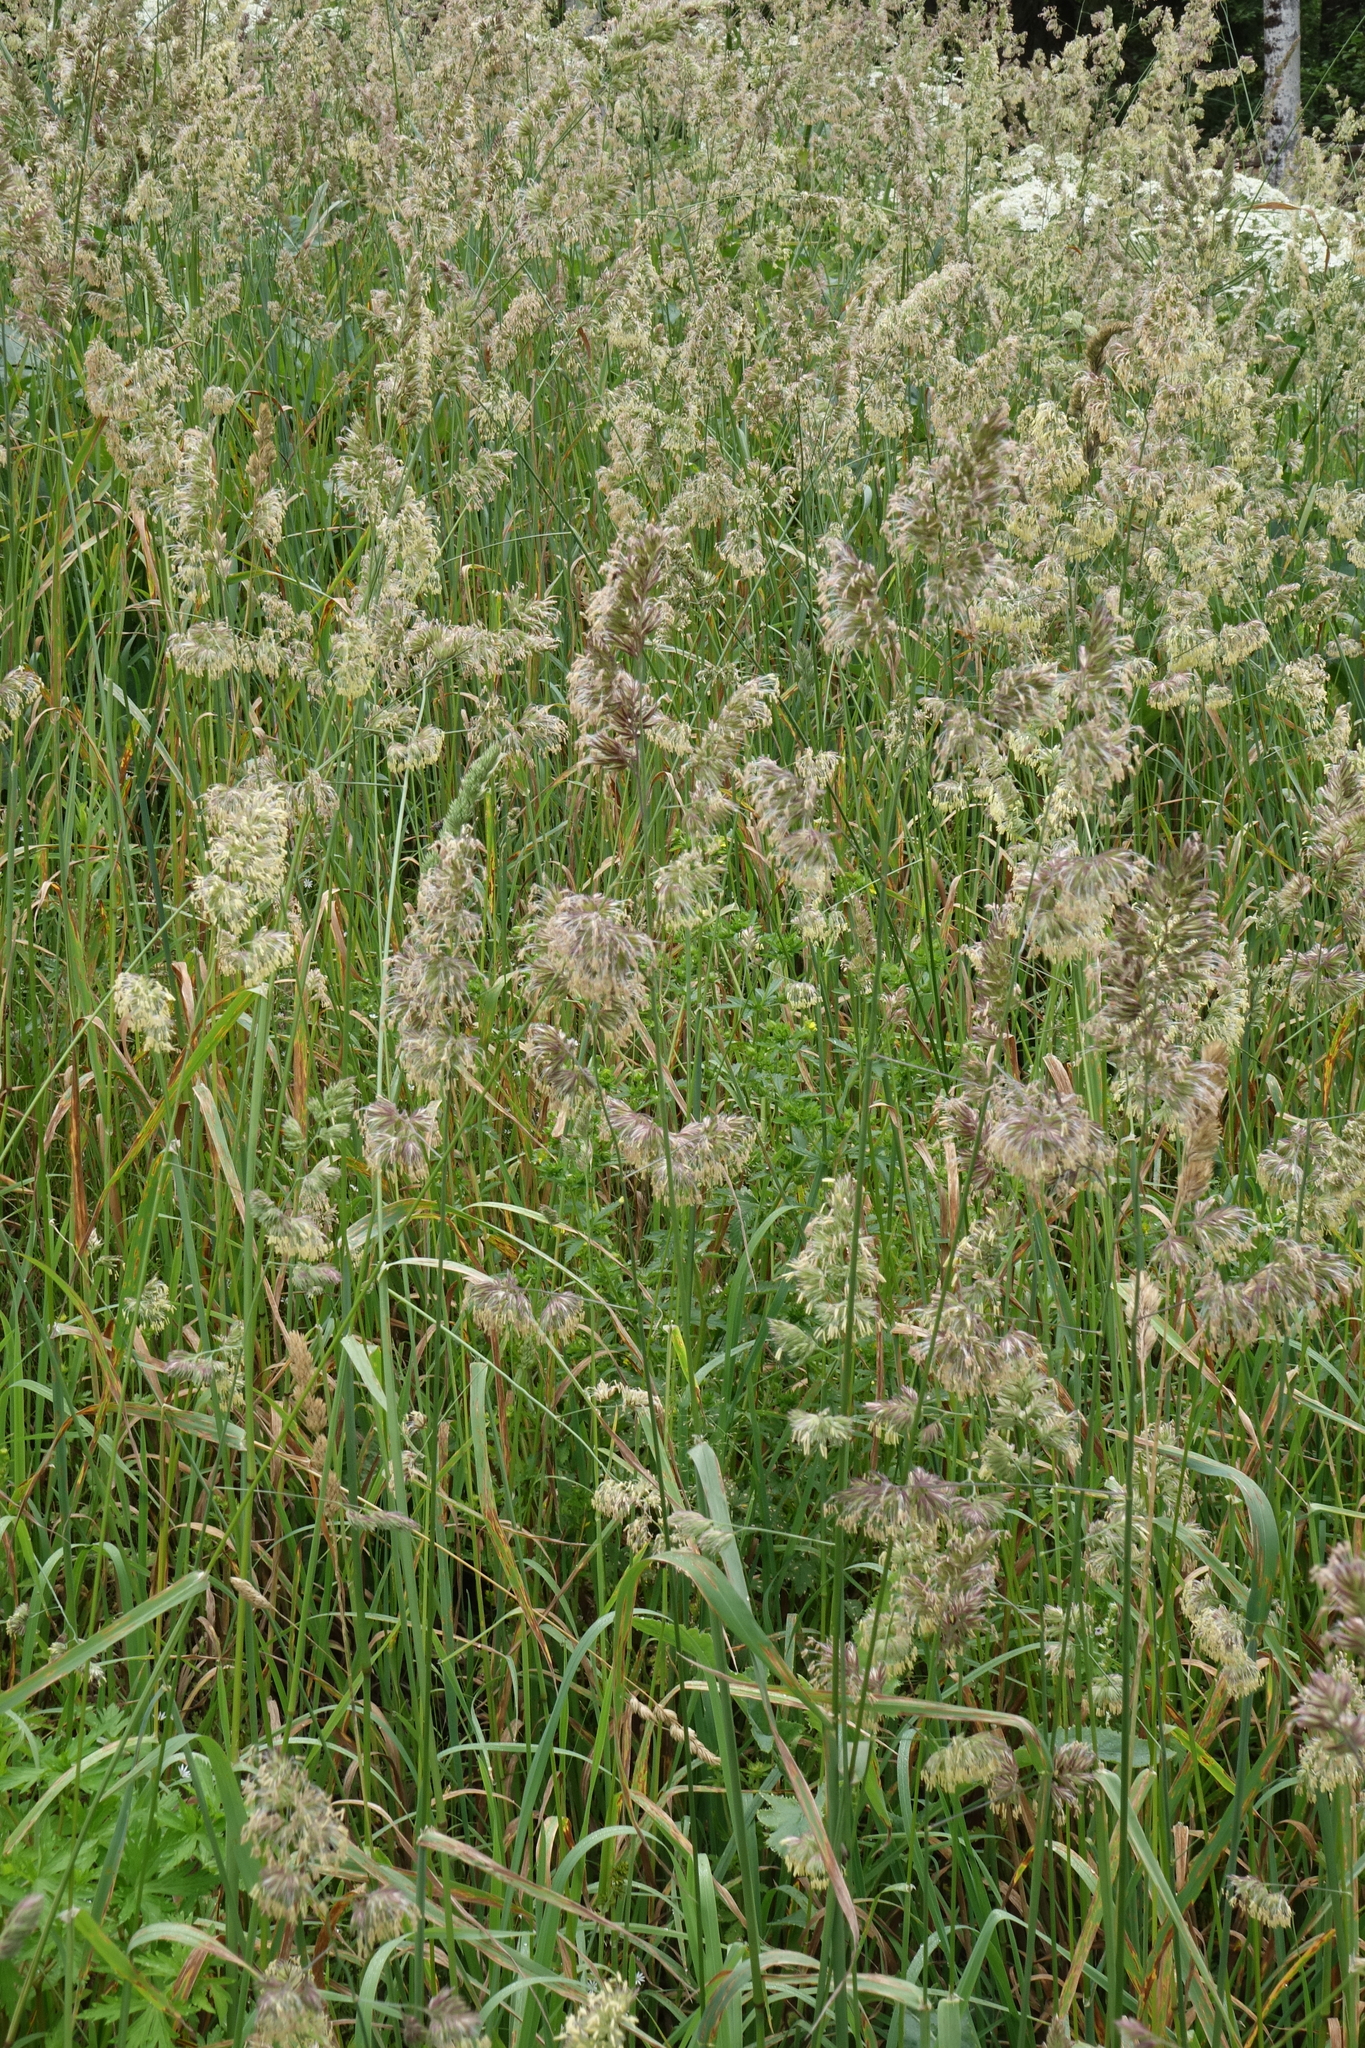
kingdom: Plantae
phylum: Tracheophyta
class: Liliopsida
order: Poales
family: Poaceae
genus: Dactylis
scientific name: Dactylis glomerata
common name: Orchardgrass
